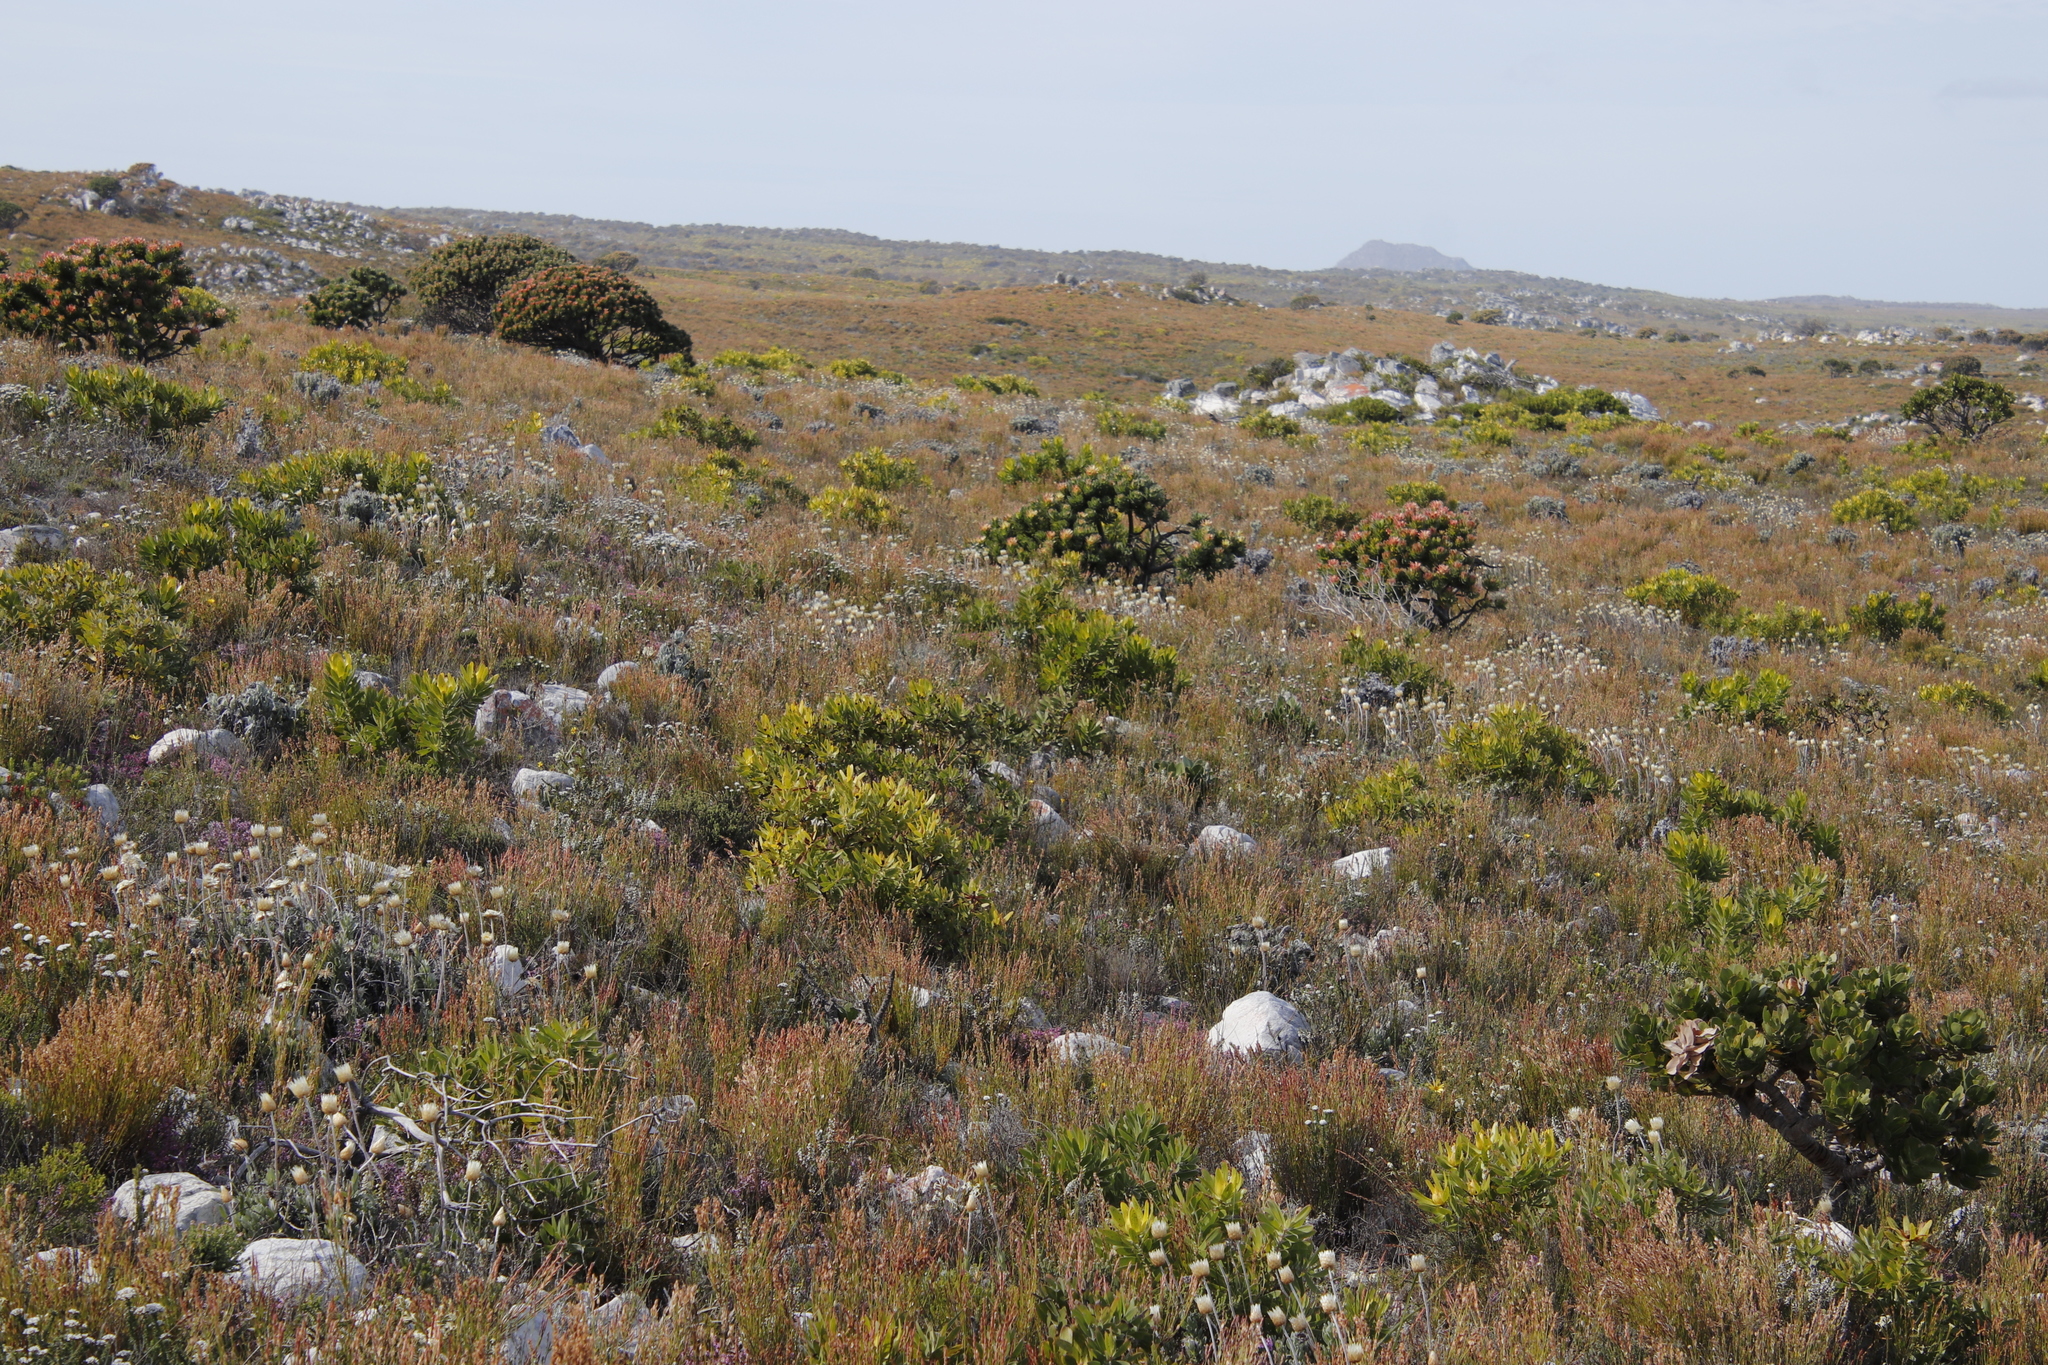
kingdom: Plantae
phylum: Tracheophyta
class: Magnoliopsida
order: Proteales
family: Proteaceae
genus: Mimetes
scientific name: Mimetes fimbriifolius
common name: Fringed bottlebrush
